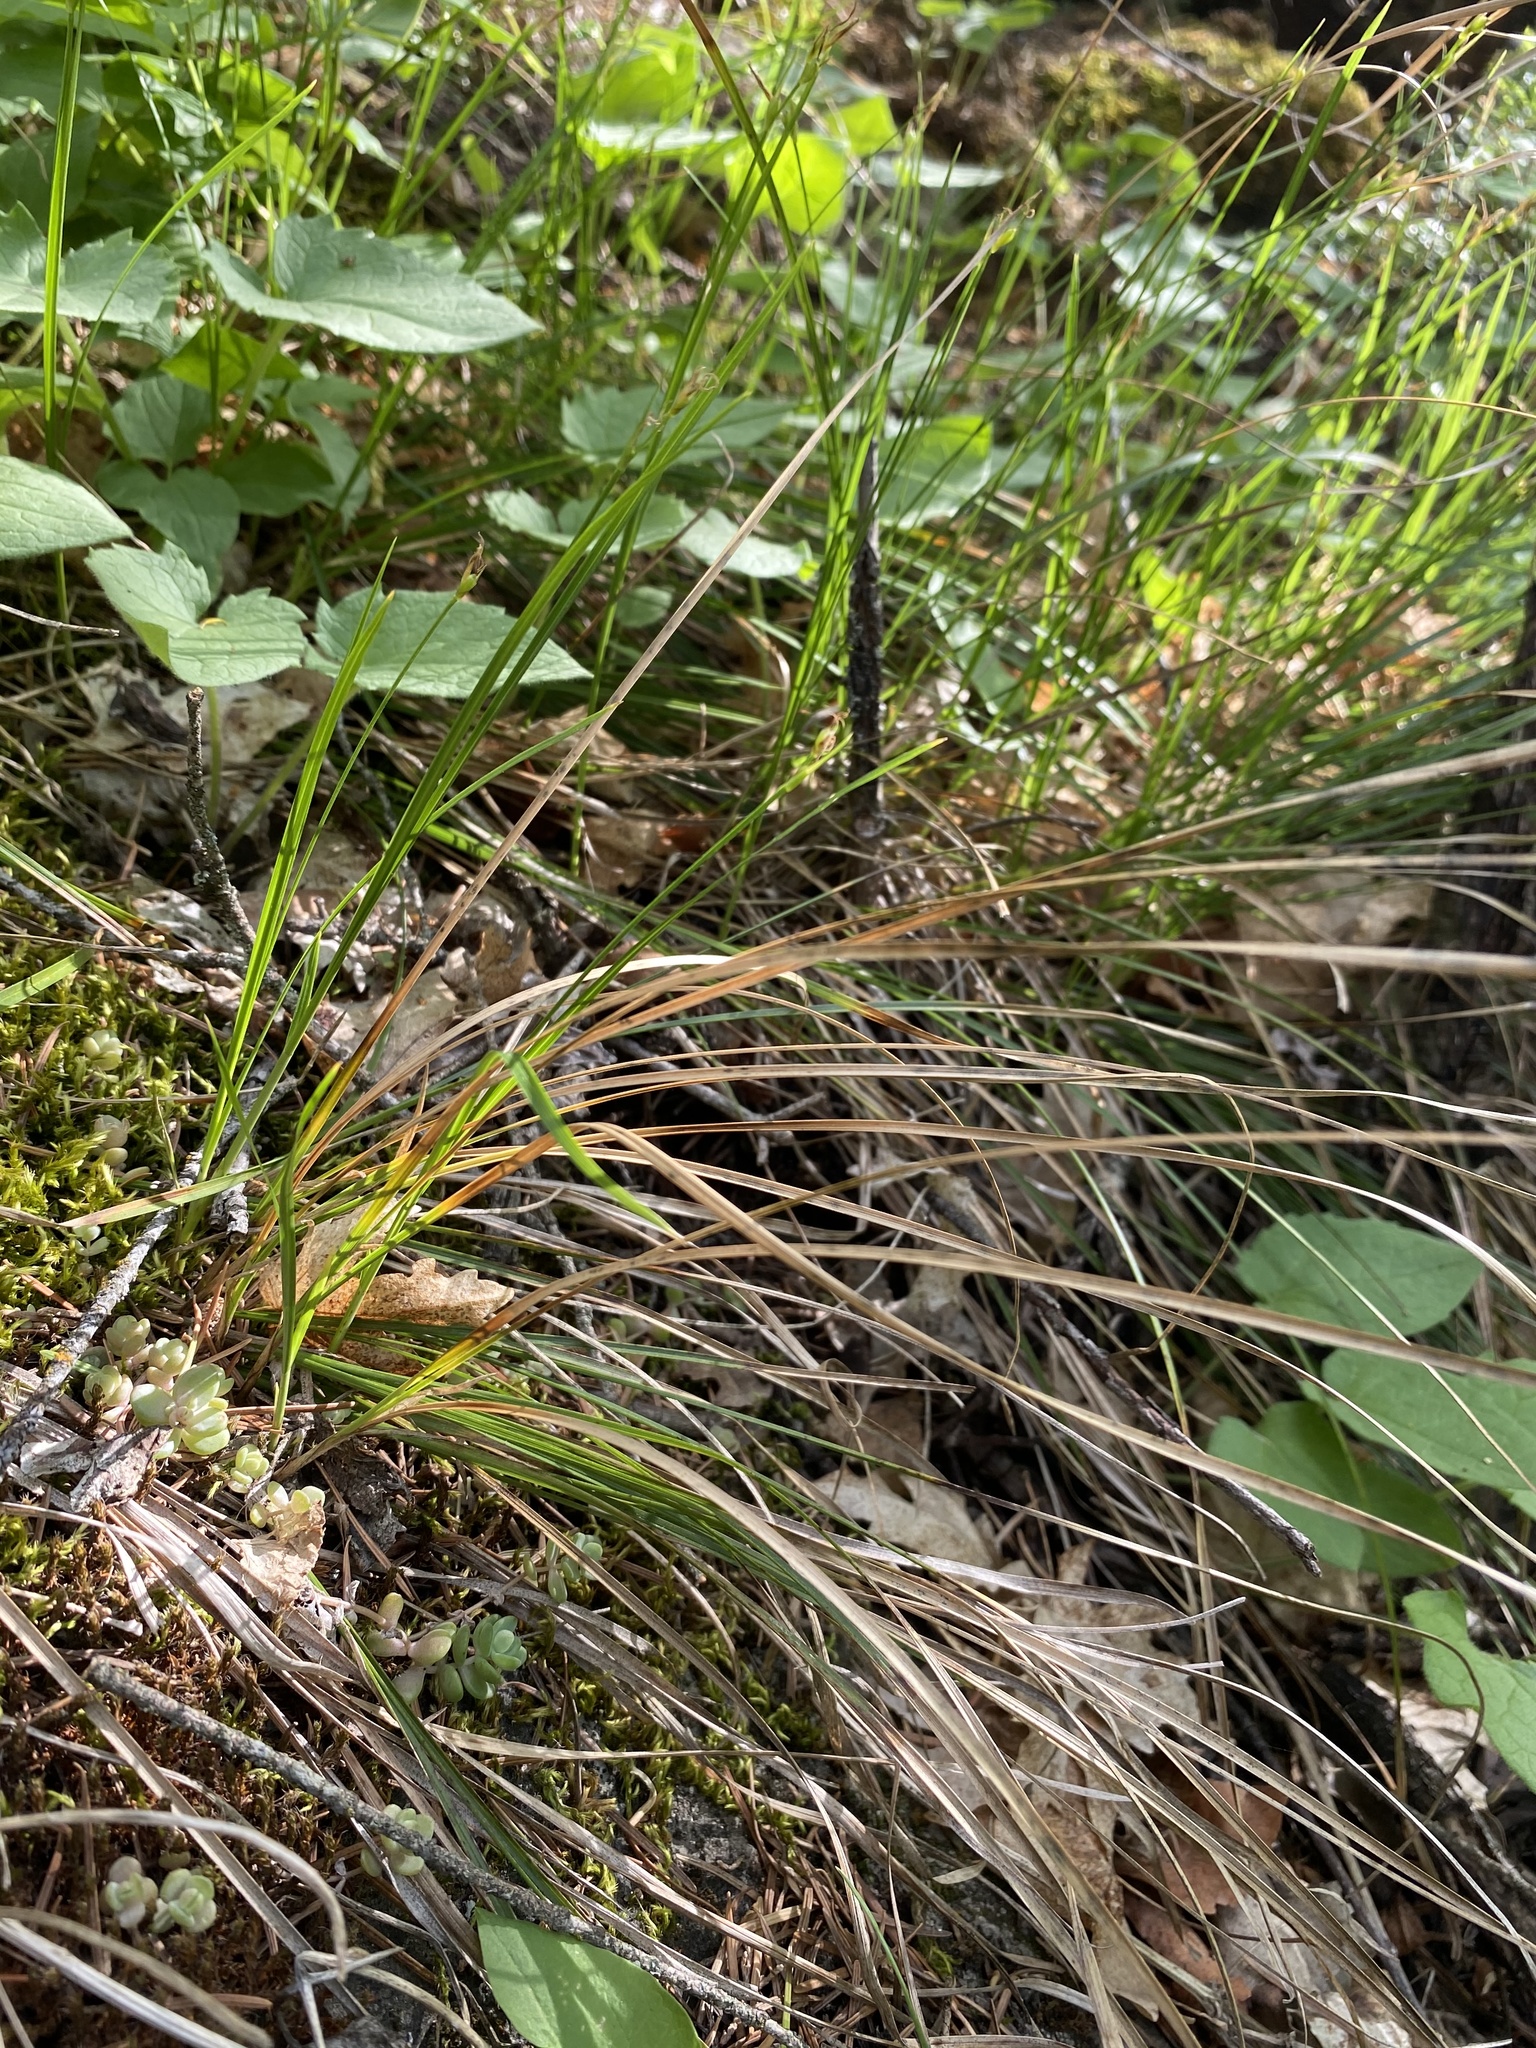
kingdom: Plantae
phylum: Tracheophyta
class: Liliopsida
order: Poales
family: Cyperaceae
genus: Carex
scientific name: Carex geyeri
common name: Elk sedge
